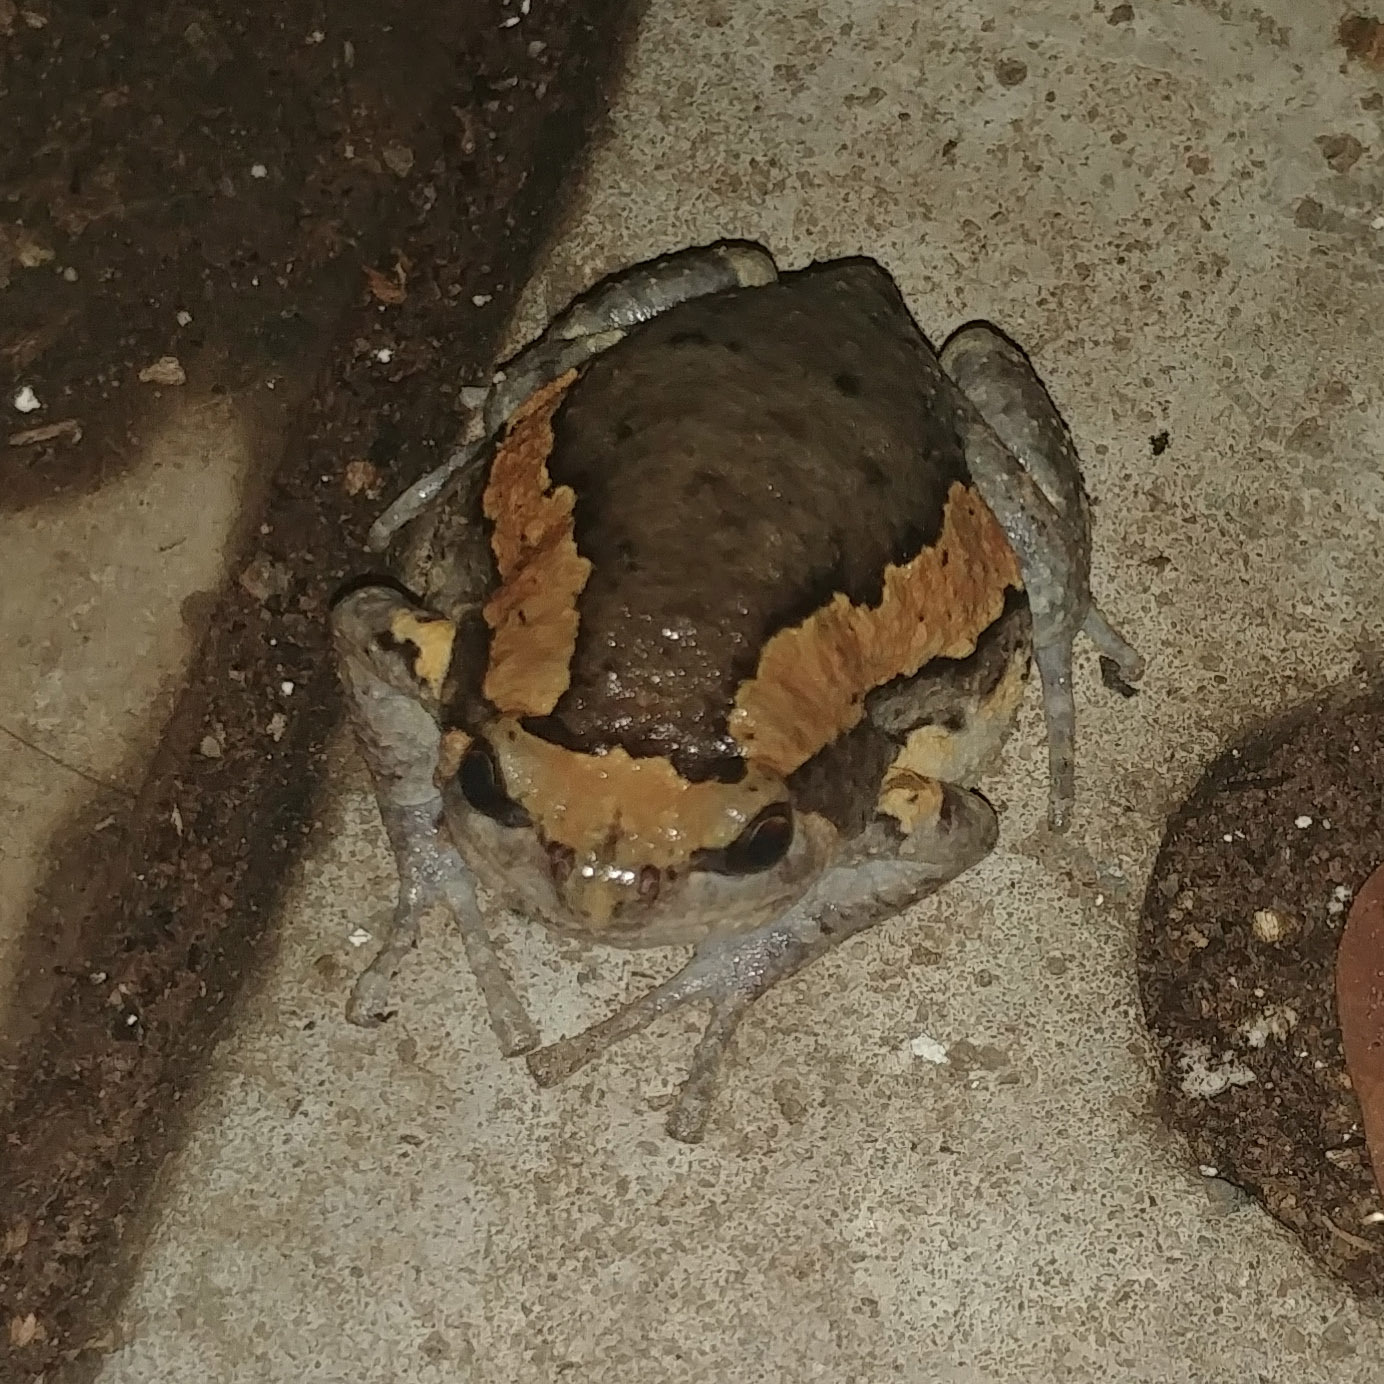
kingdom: Animalia
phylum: Chordata
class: Amphibia
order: Anura
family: Microhylidae
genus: Kaloula
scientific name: Kaloula pulchra
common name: Common,banded bullfrog
